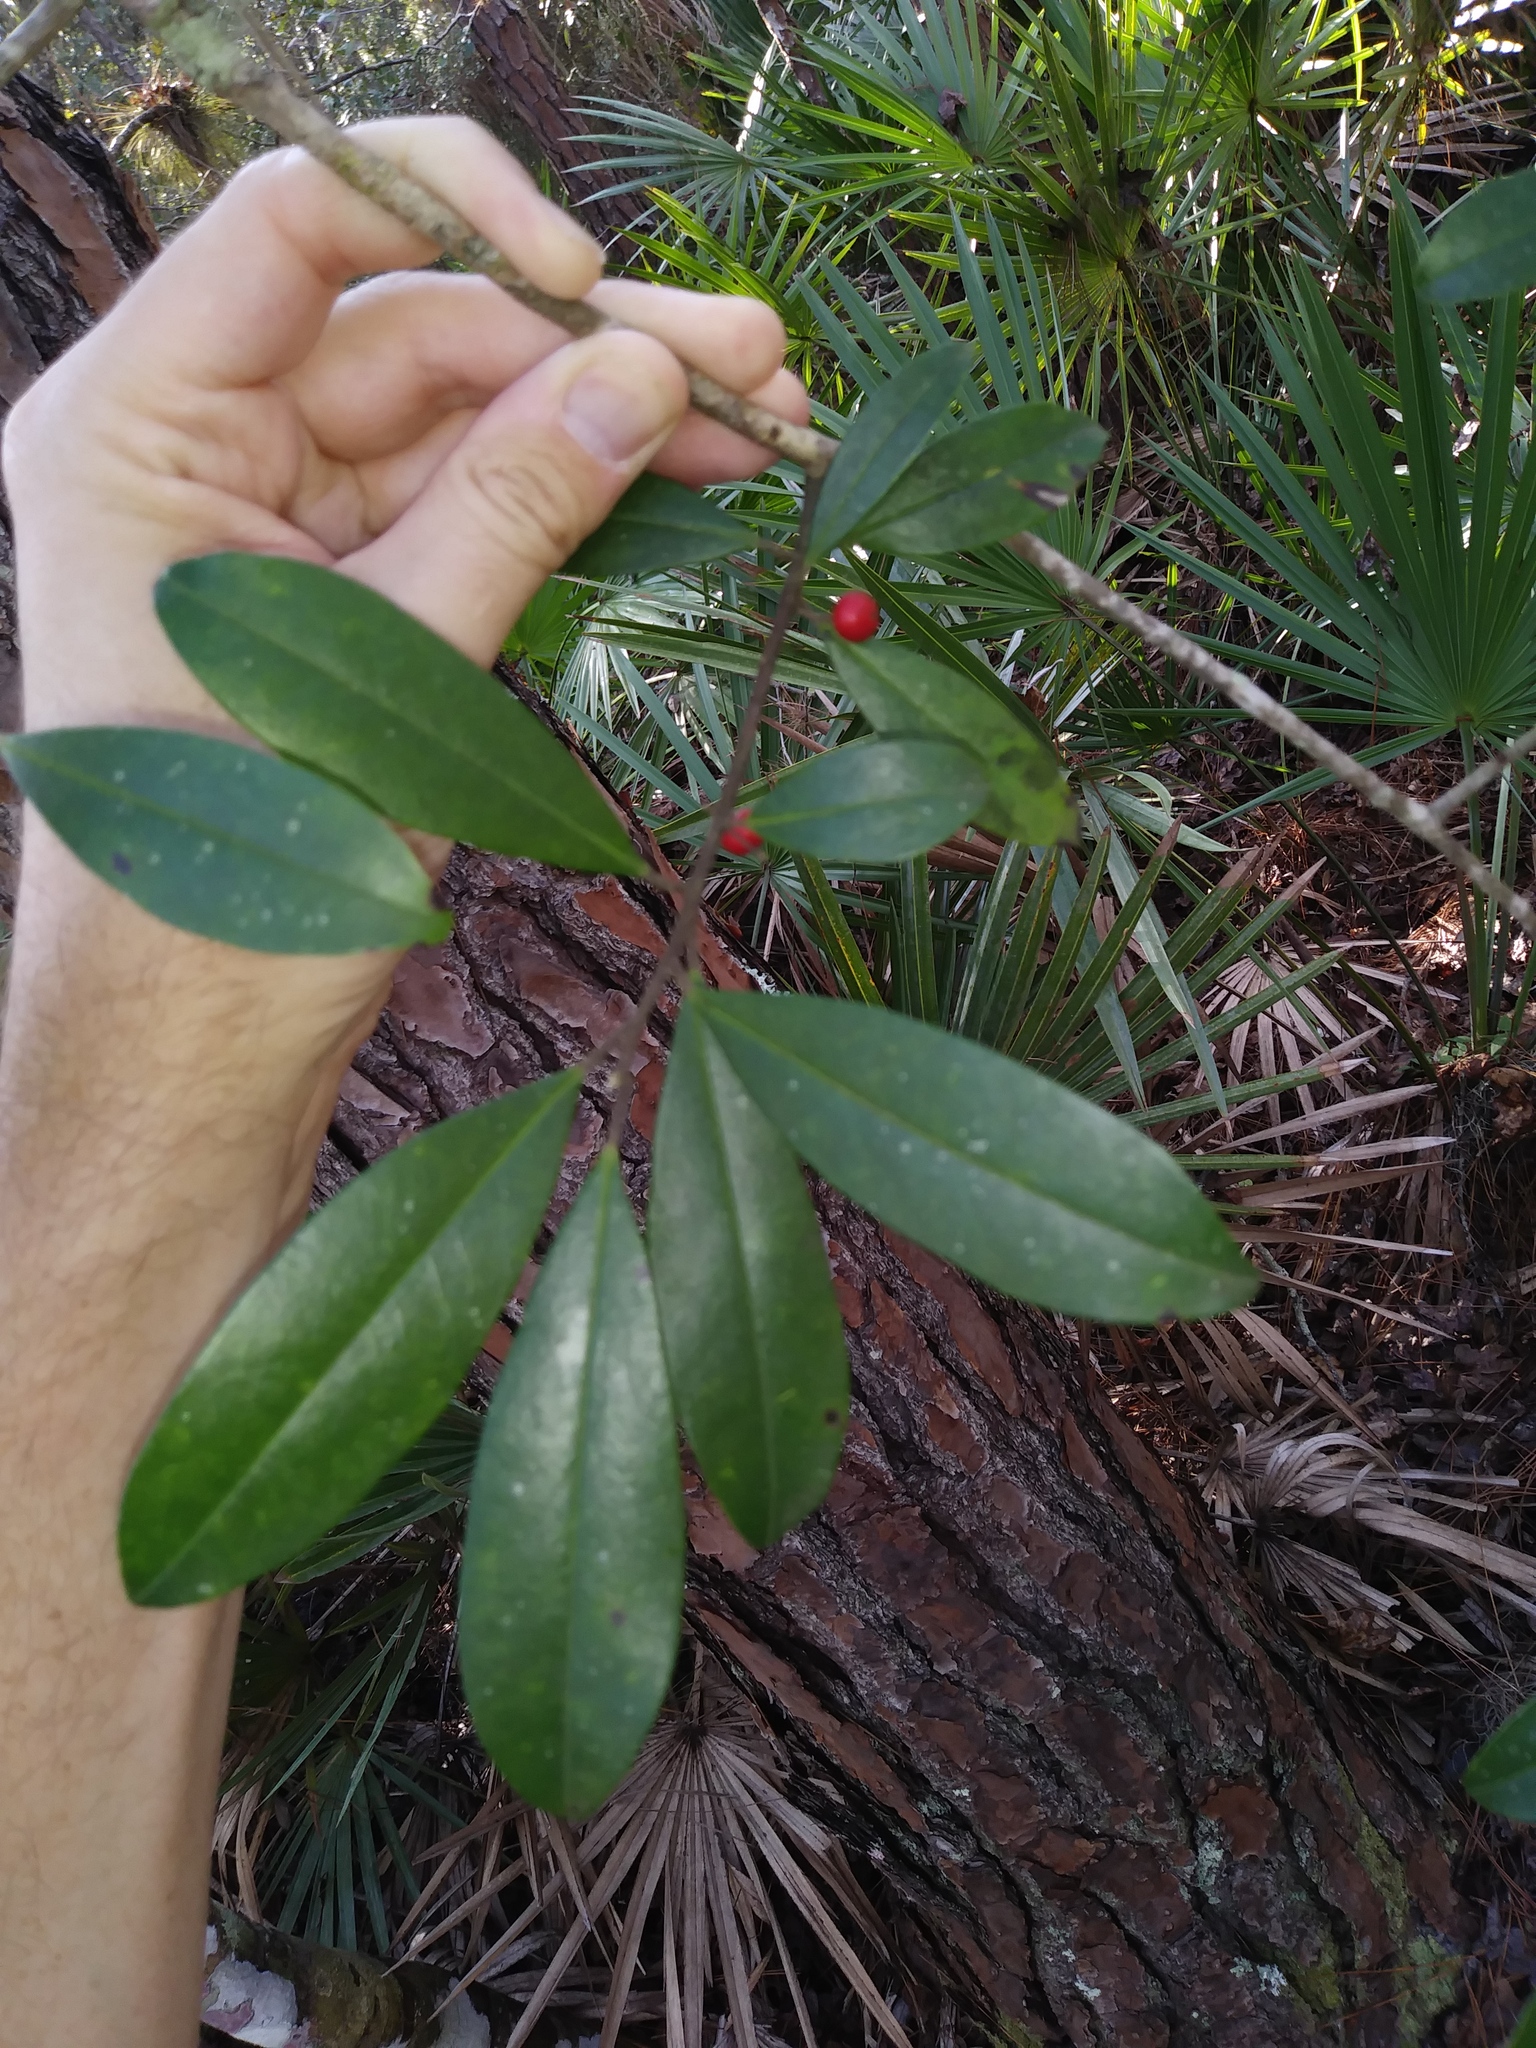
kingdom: Plantae
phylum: Tracheophyta
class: Magnoliopsida
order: Aquifoliales
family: Aquifoliaceae
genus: Ilex
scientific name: Ilex cassine
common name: Dahoon
